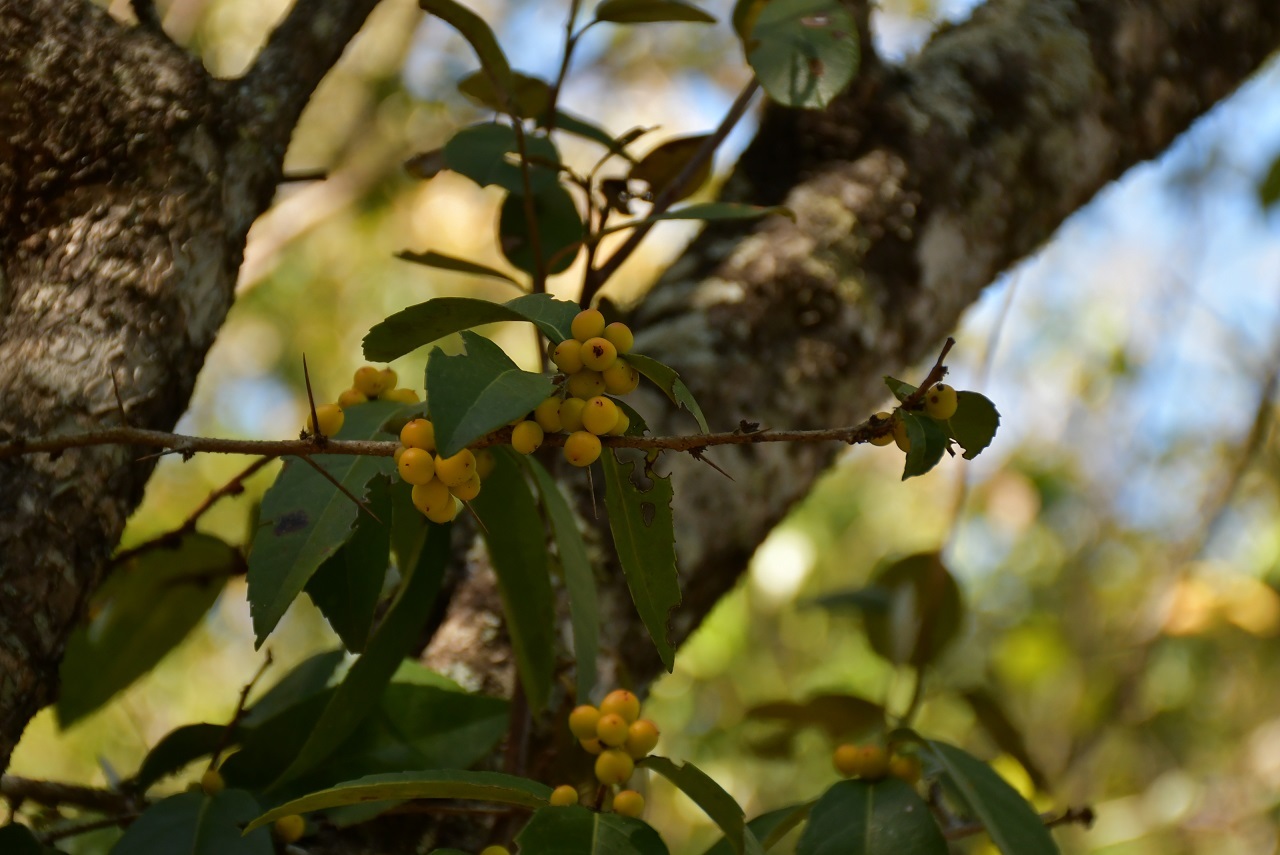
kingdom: Plantae
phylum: Tracheophyta
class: Magnoliopsida
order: Malpighiales
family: Salicaceae
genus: Xylosma
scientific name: Xylosma flexuosa
